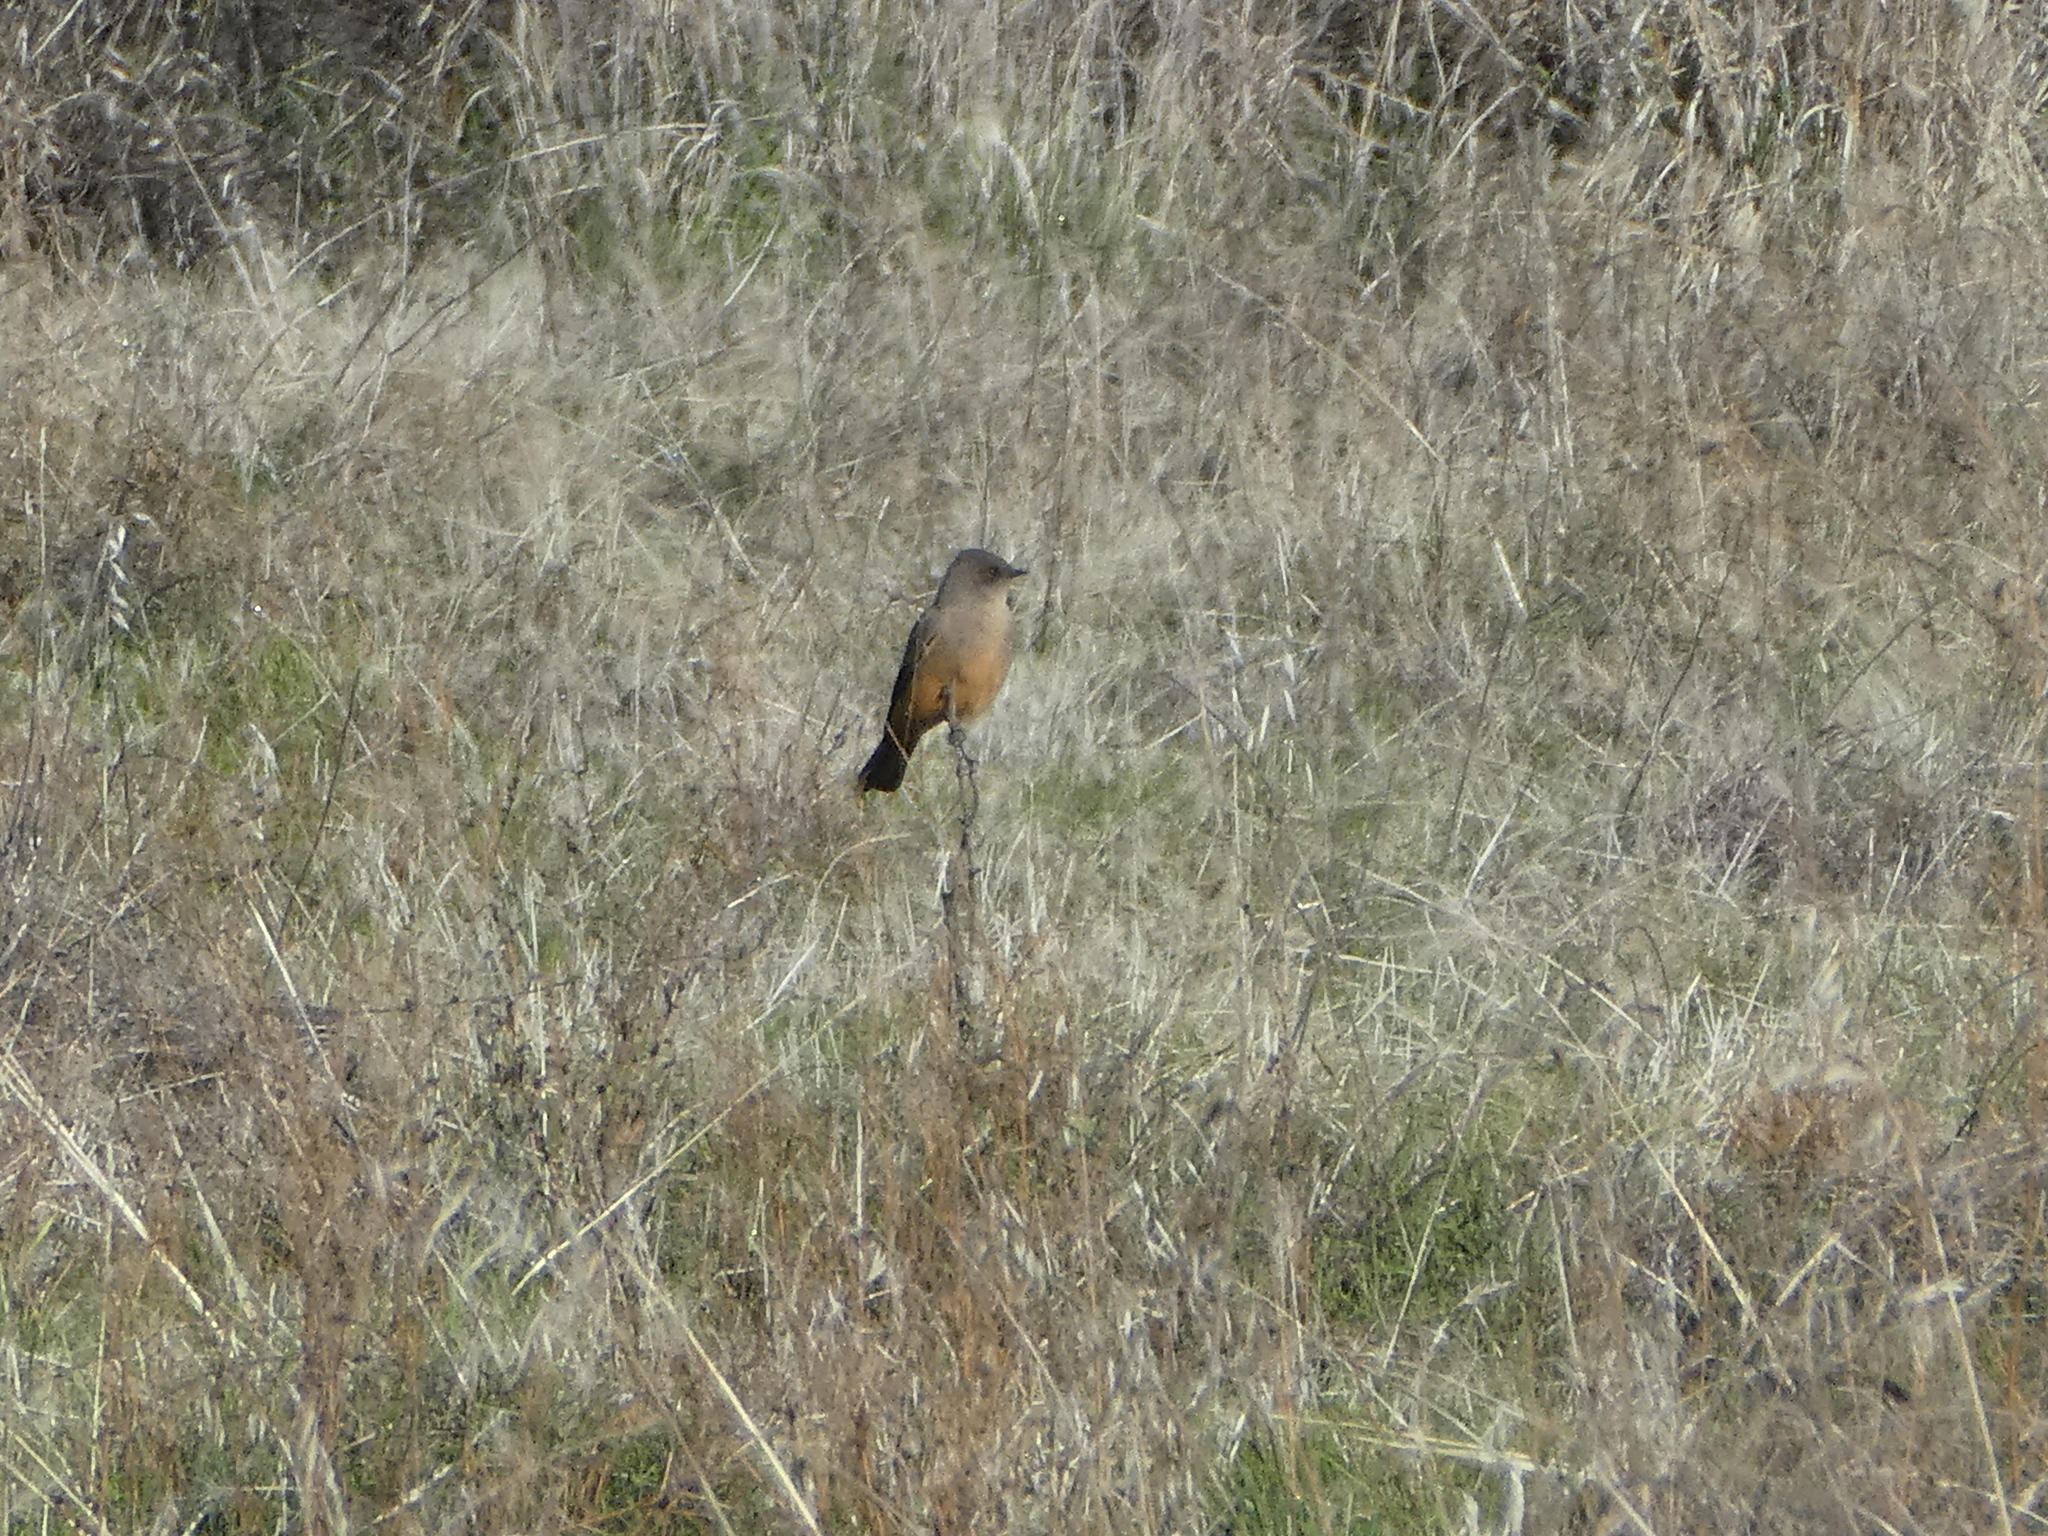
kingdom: Animalia
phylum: Chordata
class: Aves
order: Passeriformes
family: Tyrannidae
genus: Sayornis
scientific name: Sayornis saya
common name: Say's phoebe
